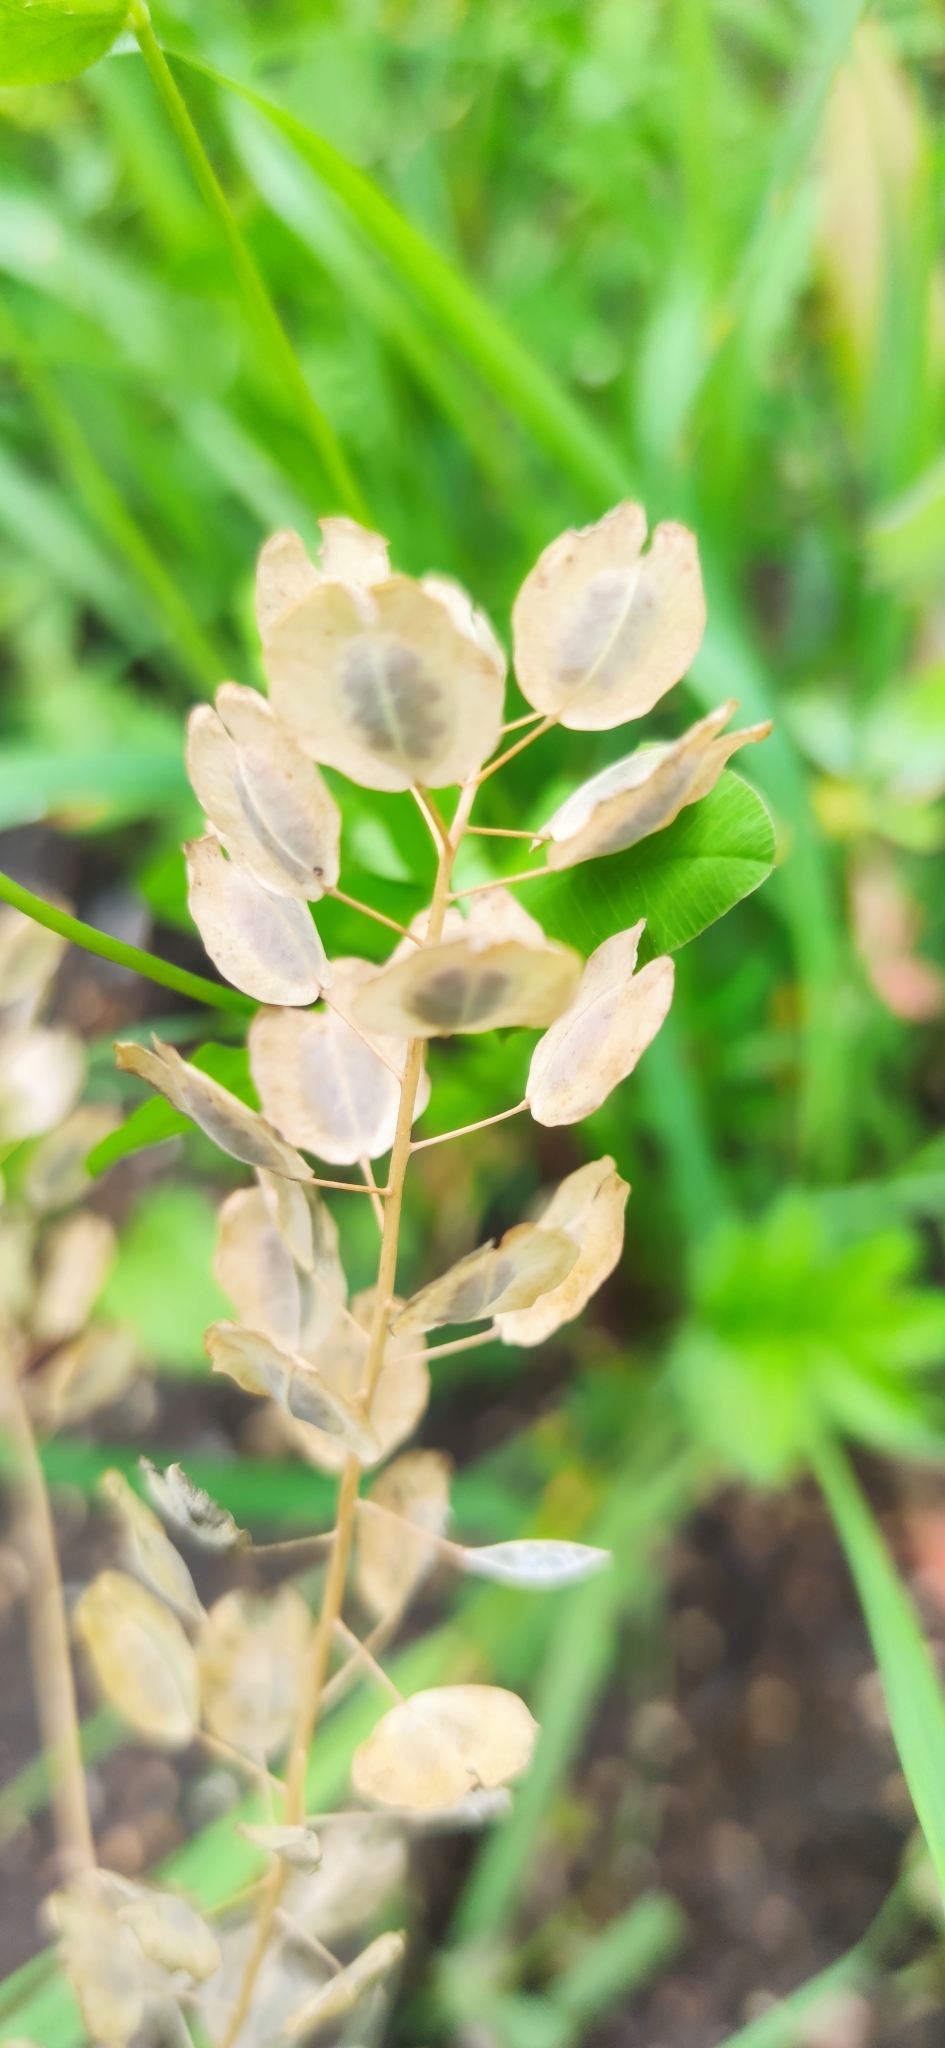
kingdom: Plantae
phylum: Tracheophyta
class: Magnoliopsida
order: Brassicales
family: Brassicaceae
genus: Thlaspi
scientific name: Thlaspi arvense
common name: Field pennycress
